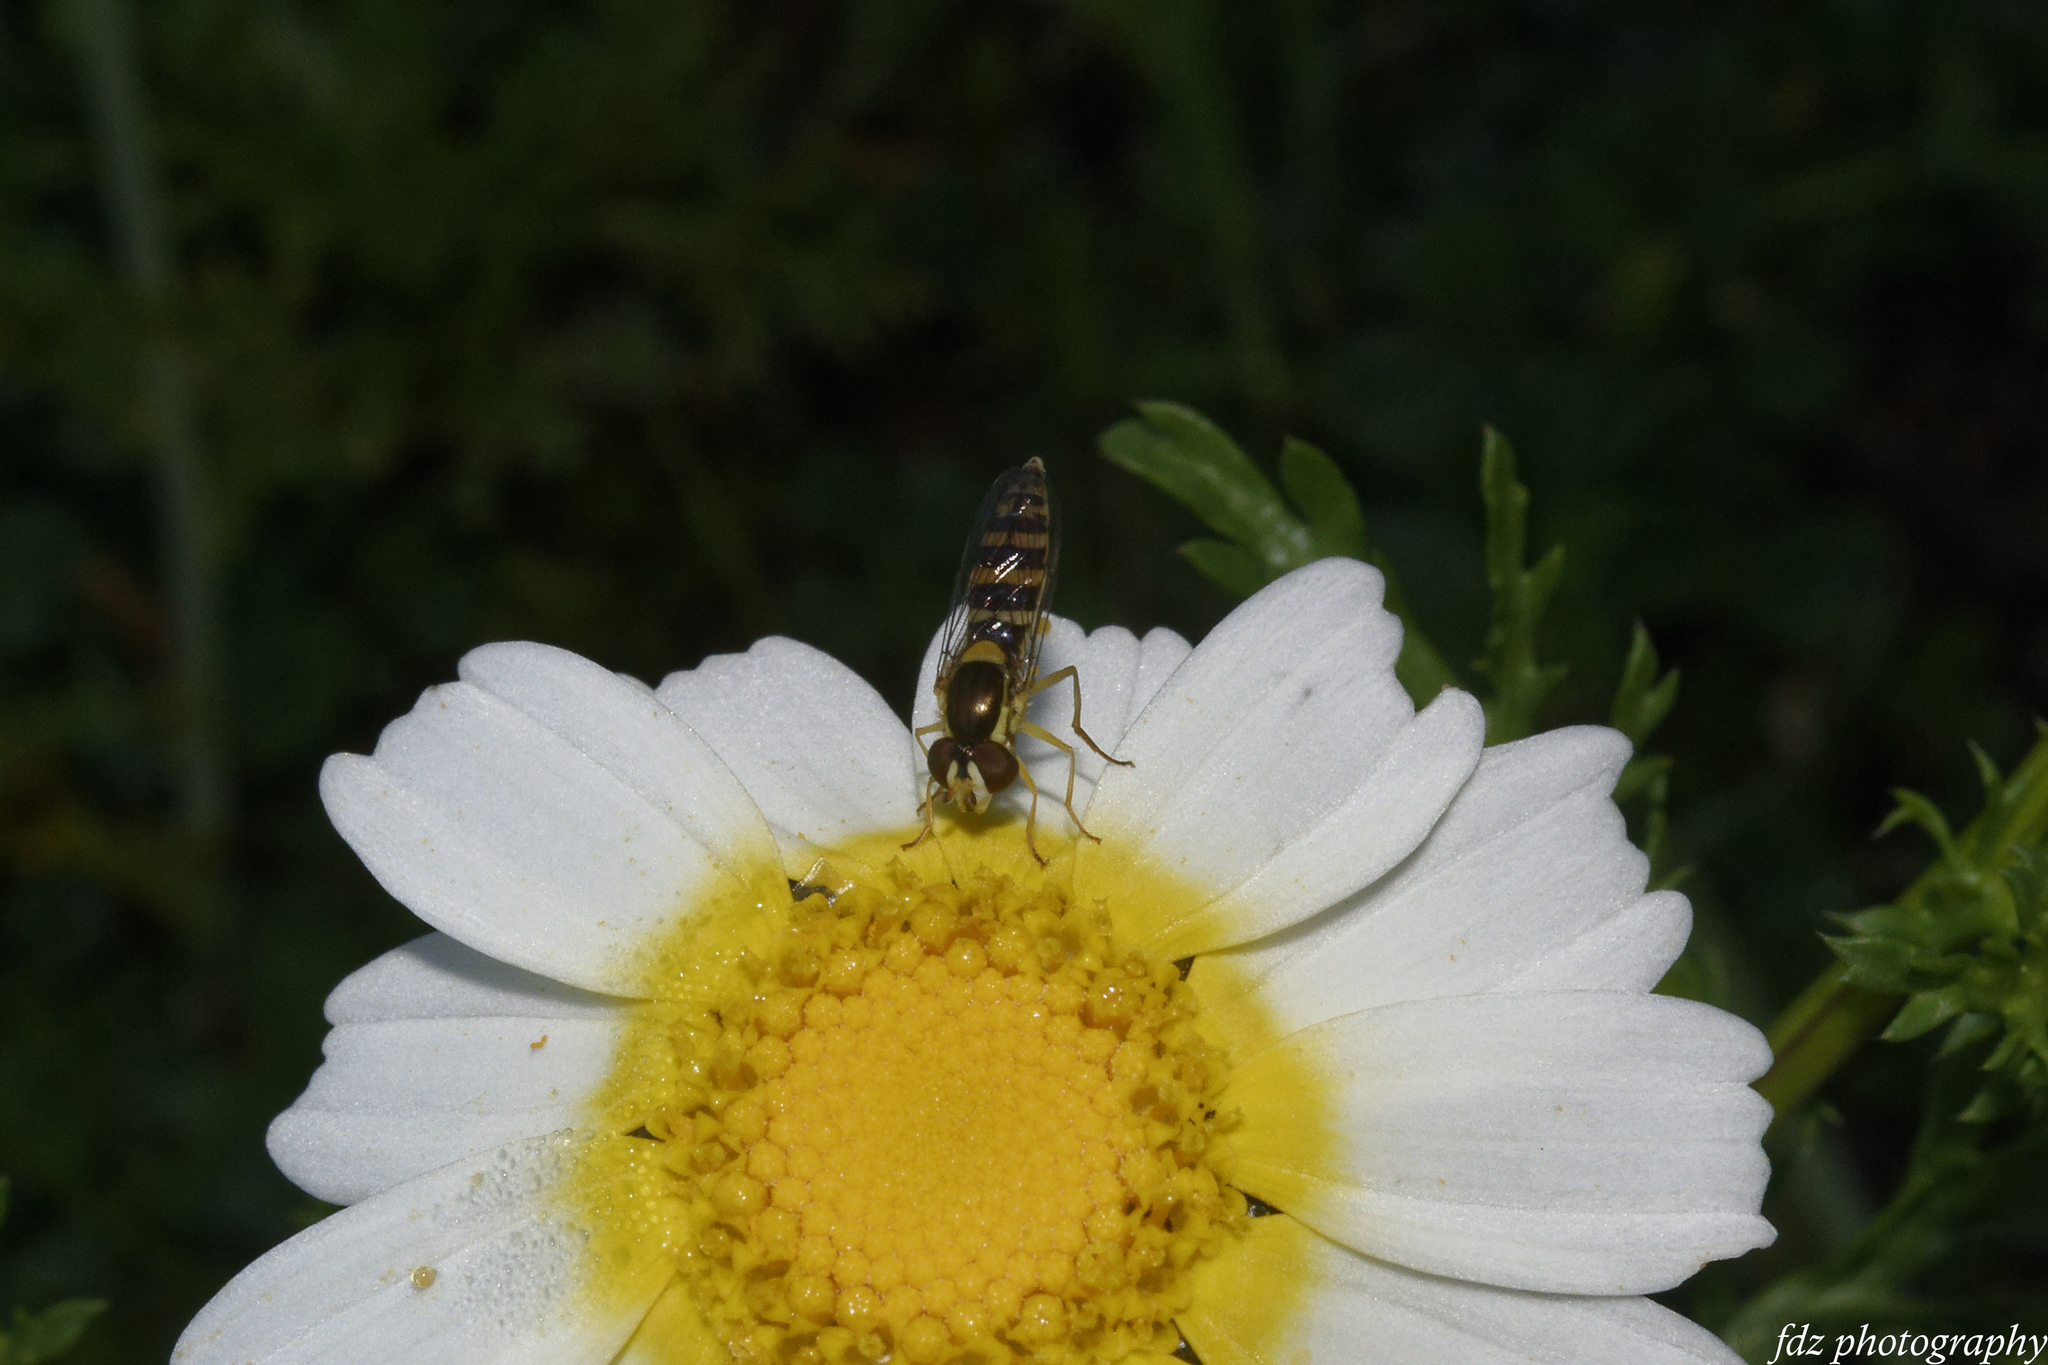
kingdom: Animalia
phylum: Arthropoda
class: Insecta
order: Diptera
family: Syrphidae
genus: Sphaerophoria
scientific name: Sphaerophoria
